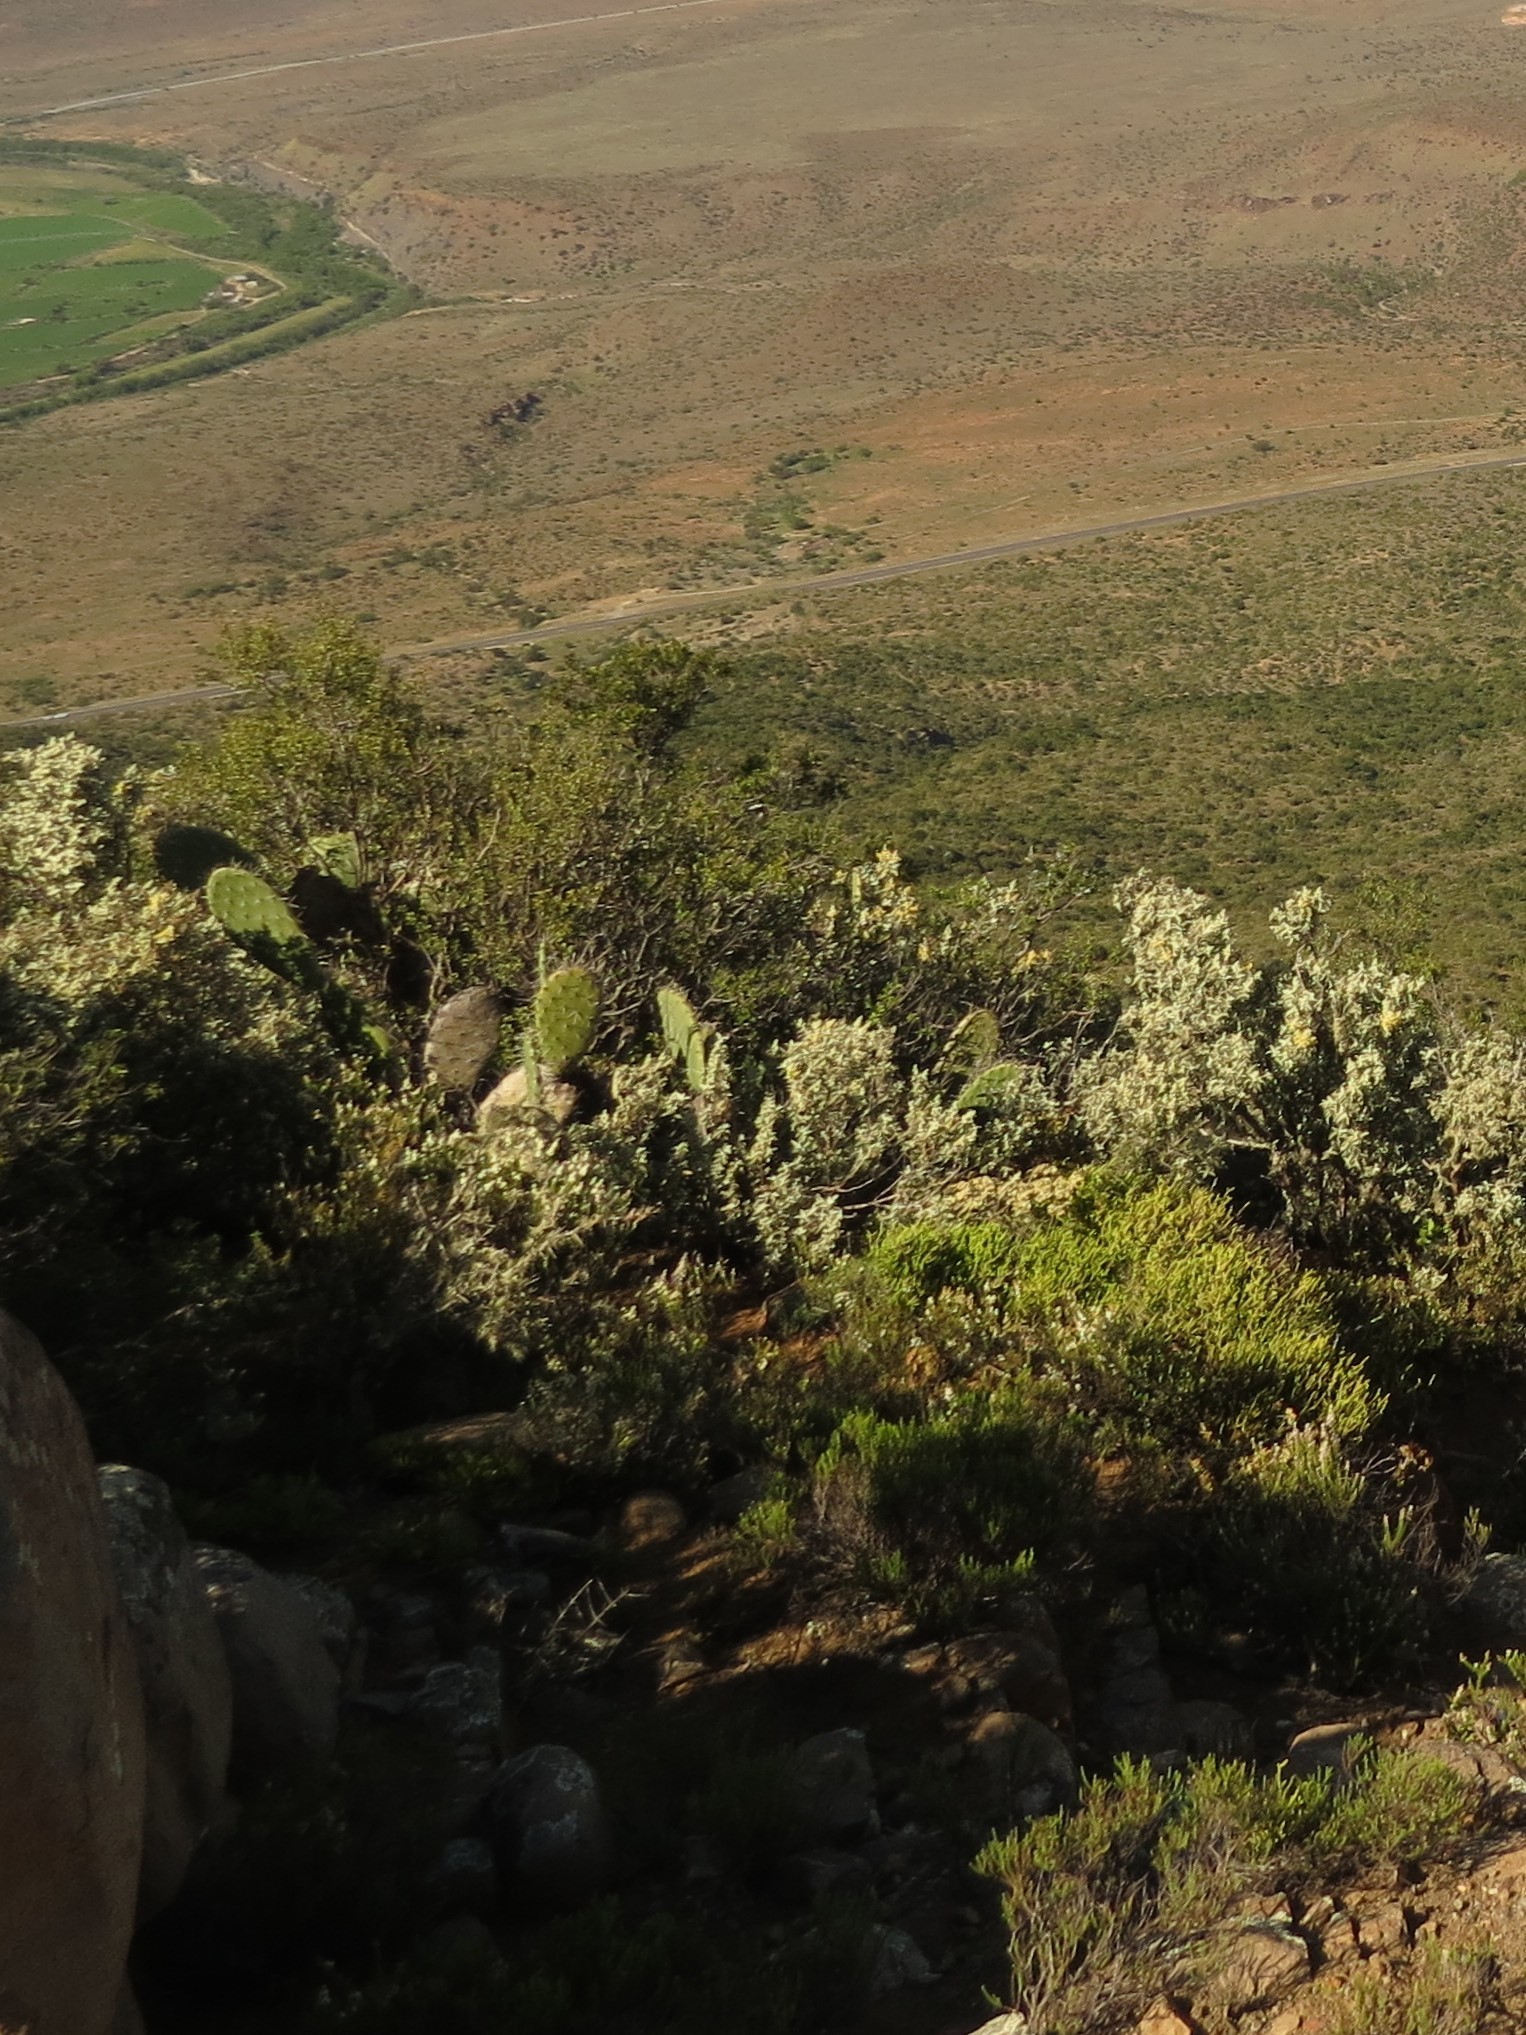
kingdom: Plantae
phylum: Tracheophyta
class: Magnoliopsida
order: Caryophyllales
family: Cactaceae
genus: Opuntia
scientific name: Opuntia ficus-indica
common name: Barbary fig
